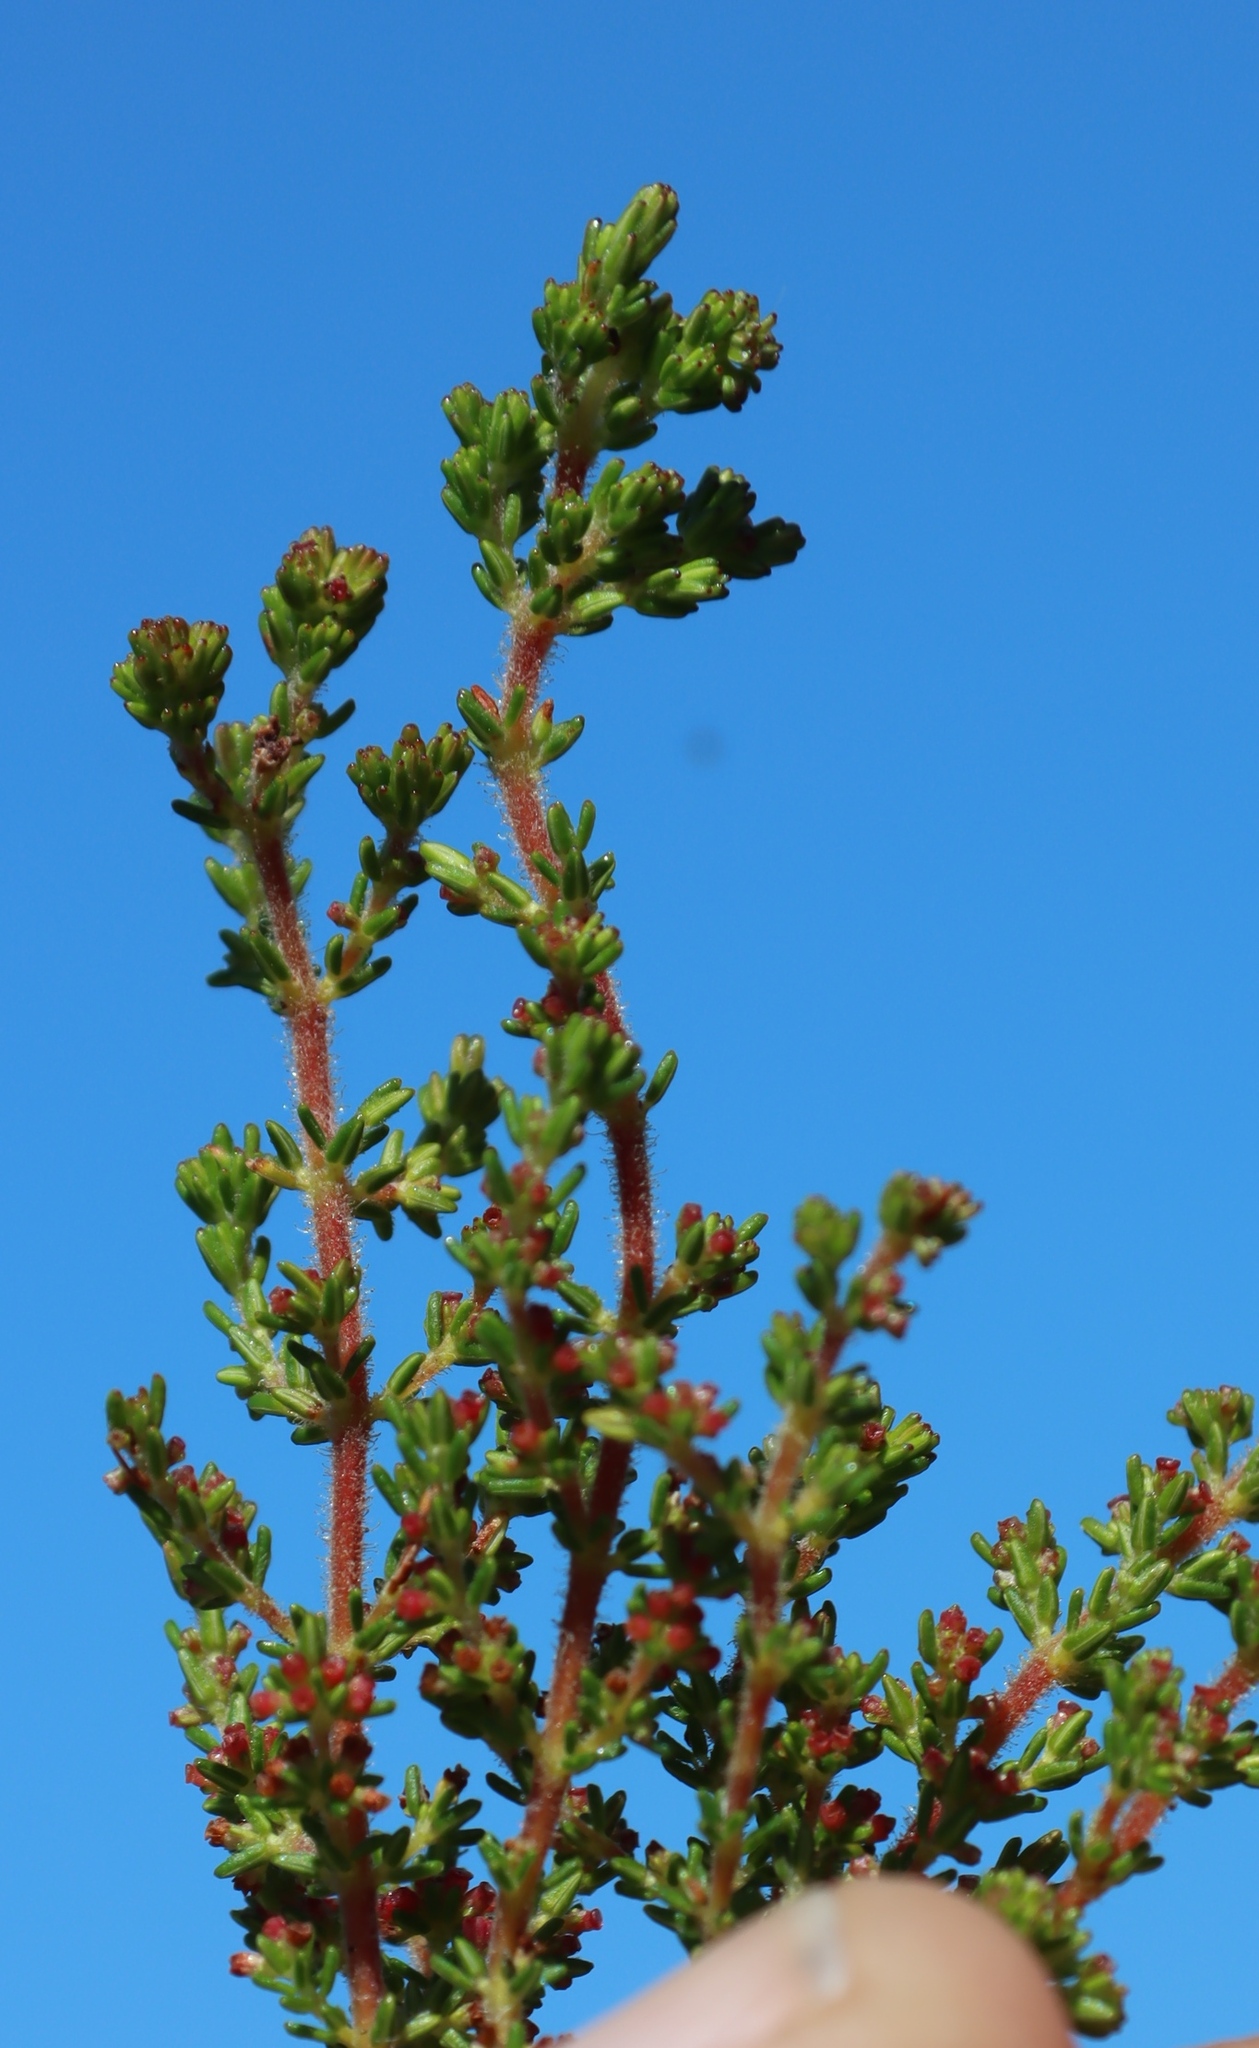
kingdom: Plantae
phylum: Tracheophyta
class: Magnoliopsida
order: Ericales
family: Ericaceae
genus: Erica
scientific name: Erica muscosa
